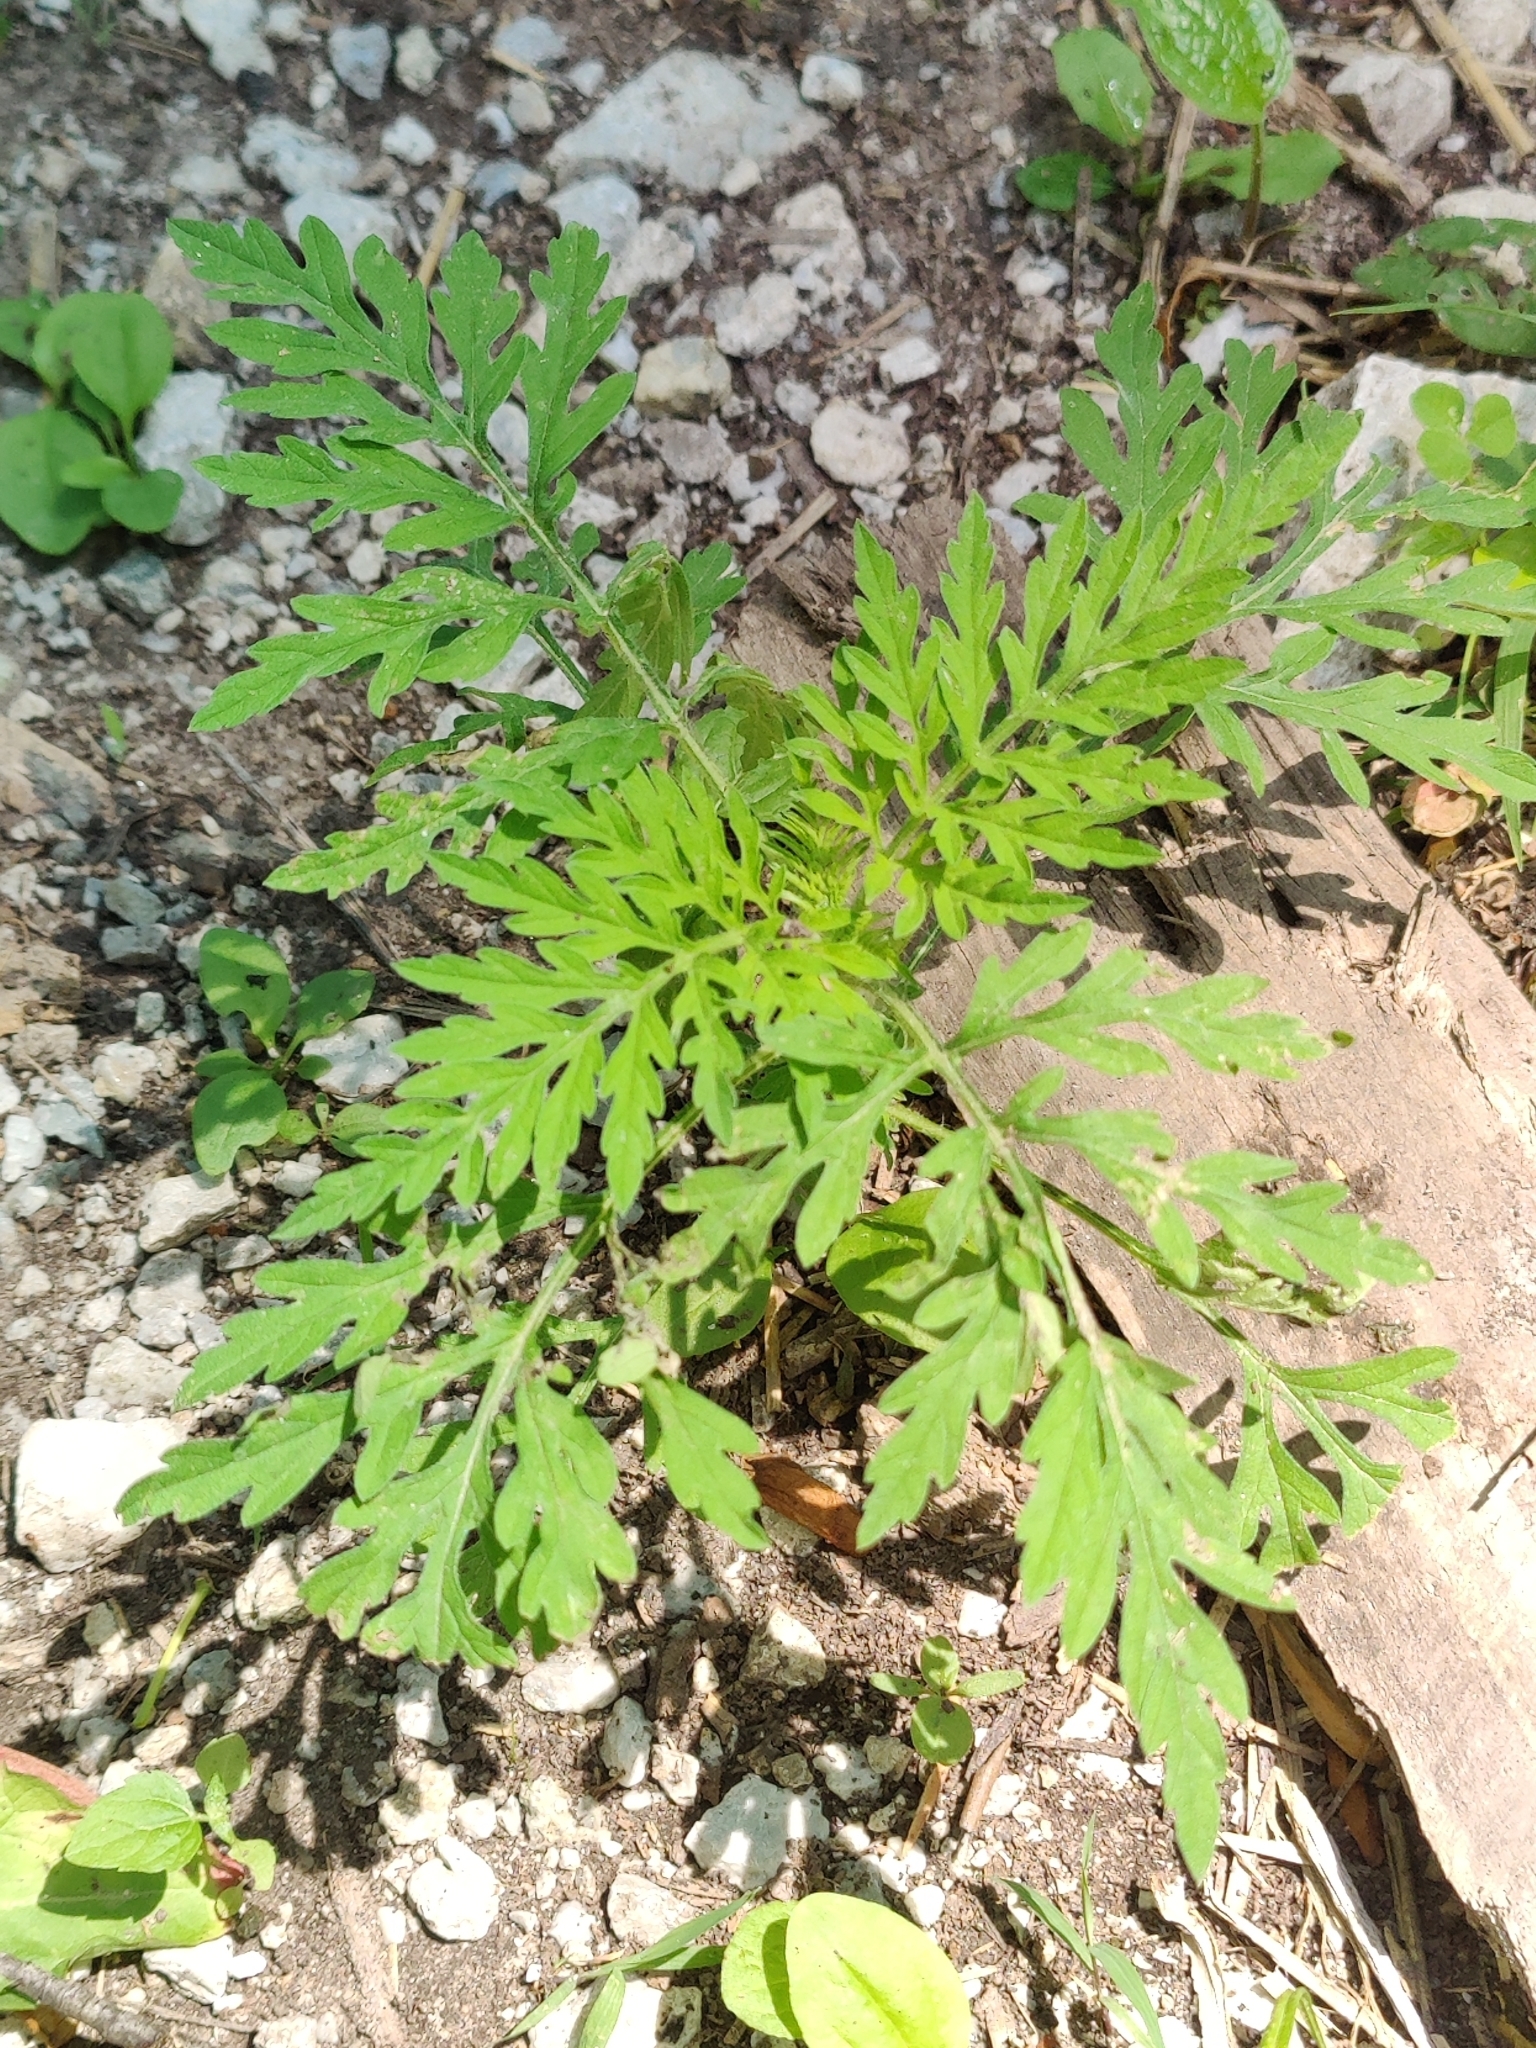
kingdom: Plantae
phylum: Tracheophyta
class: Magnoliopsida
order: Asterales
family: Asteraceae
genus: Ambrosia
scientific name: Ambrosia artemisiifolia
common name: Annual ragweed
